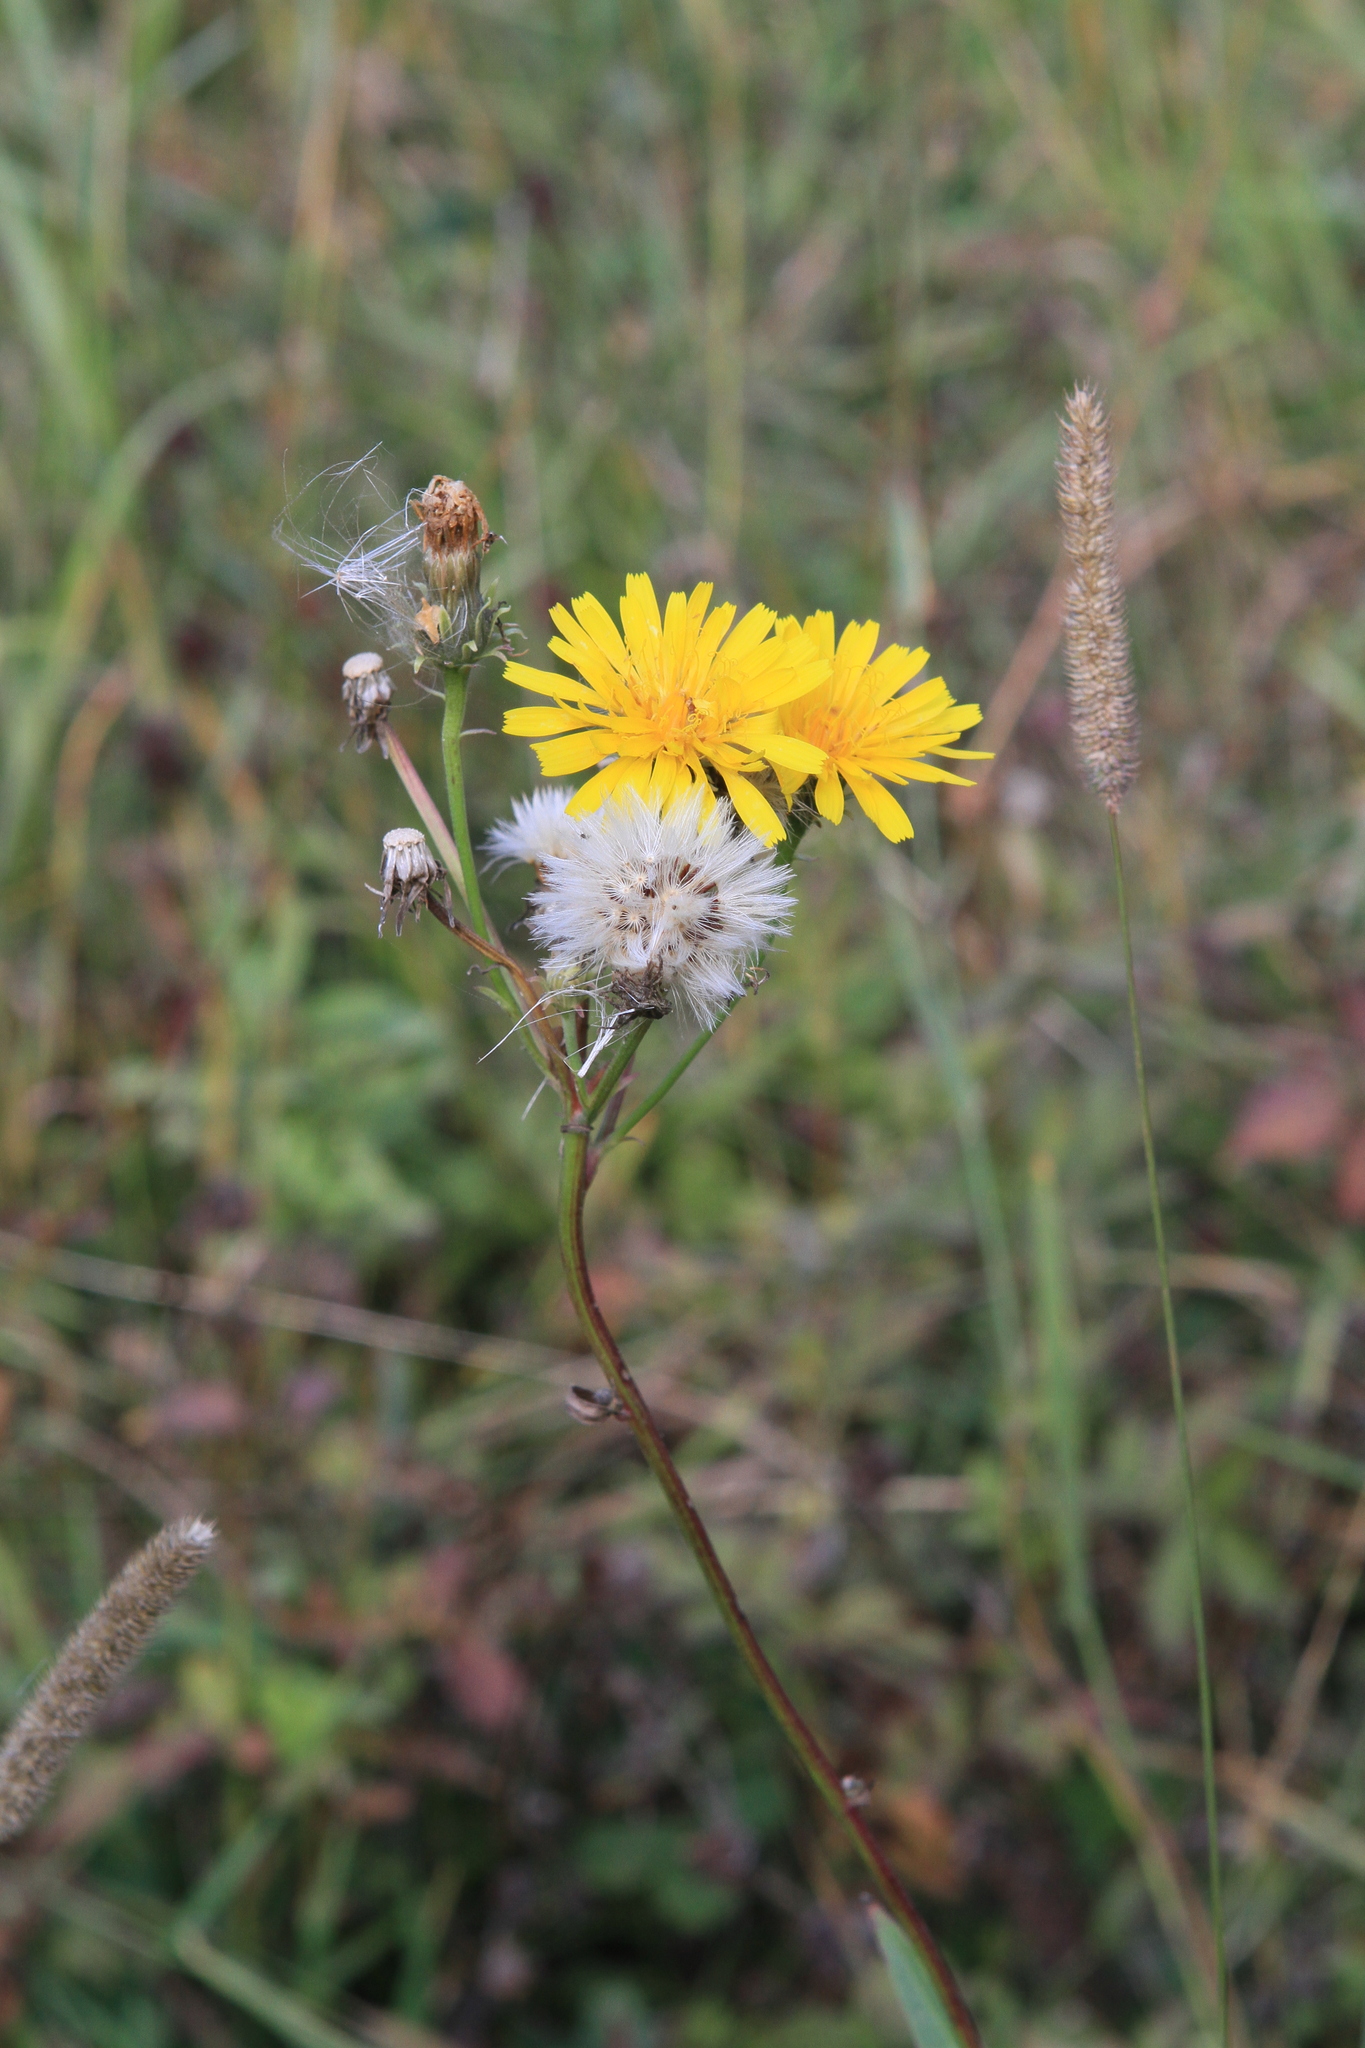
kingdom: Plantae
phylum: Tracheophyta
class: Magnoliopsida
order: Asterales
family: Asteraceae
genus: Picris
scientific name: Picris hieracioides
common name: Hawkweed oxtongue
